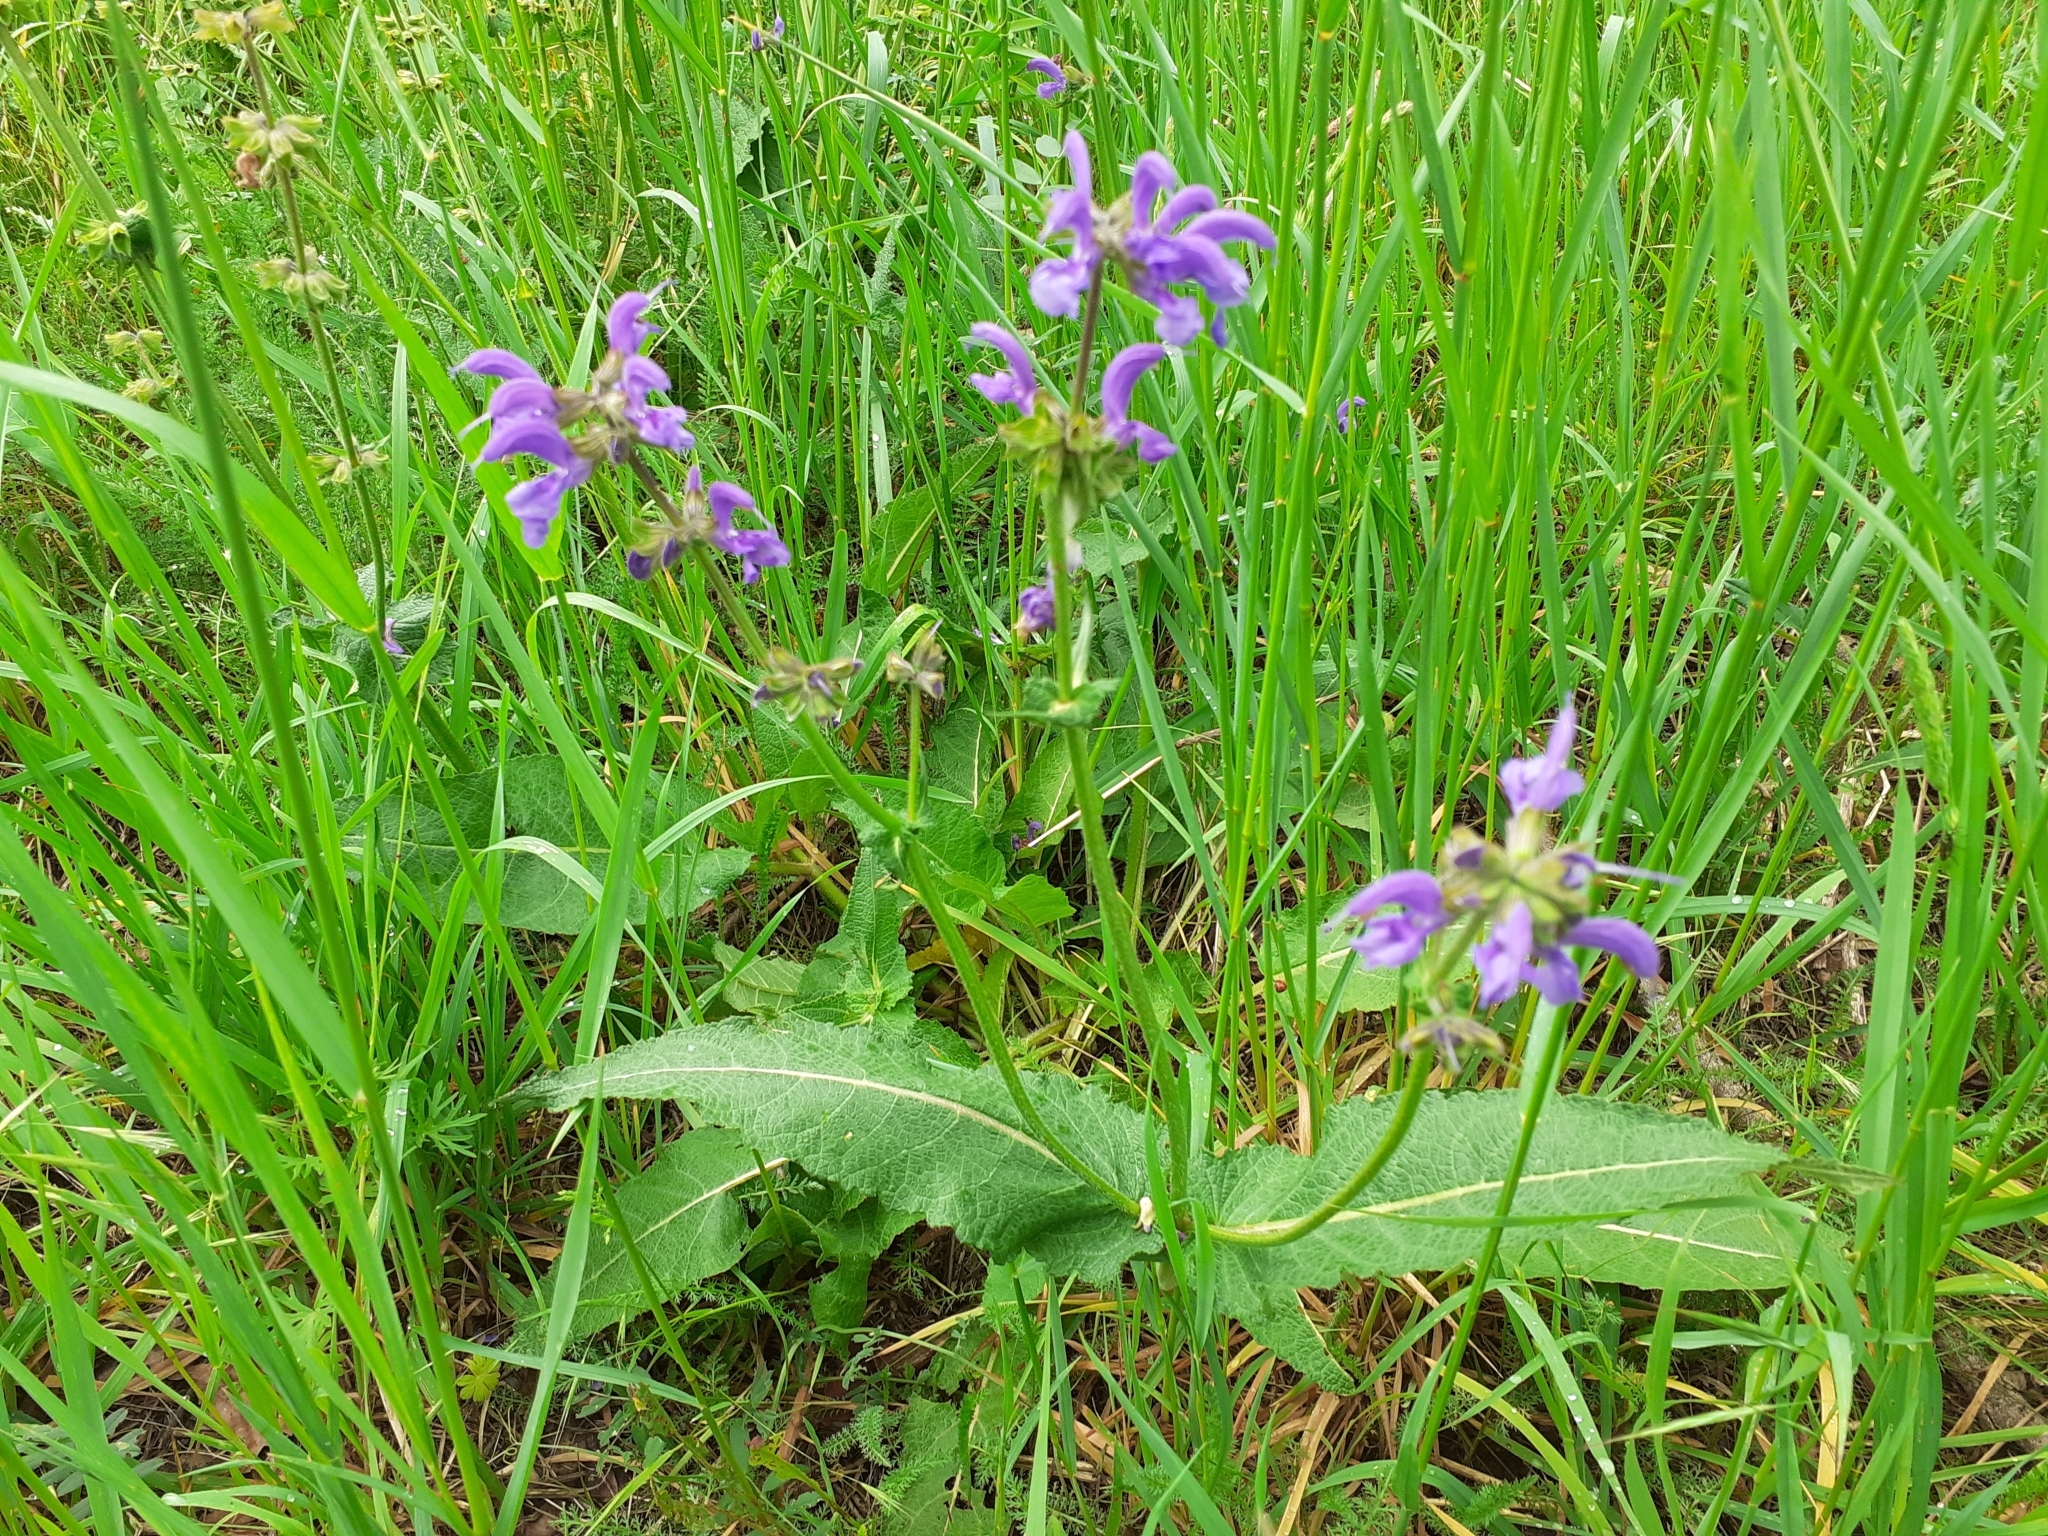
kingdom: Plantae
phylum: Tracheophyta
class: Magnoliopsida
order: Lamiales
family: Lamiaceae
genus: Salvia
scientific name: Salvia pratensis
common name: Meadow sage
